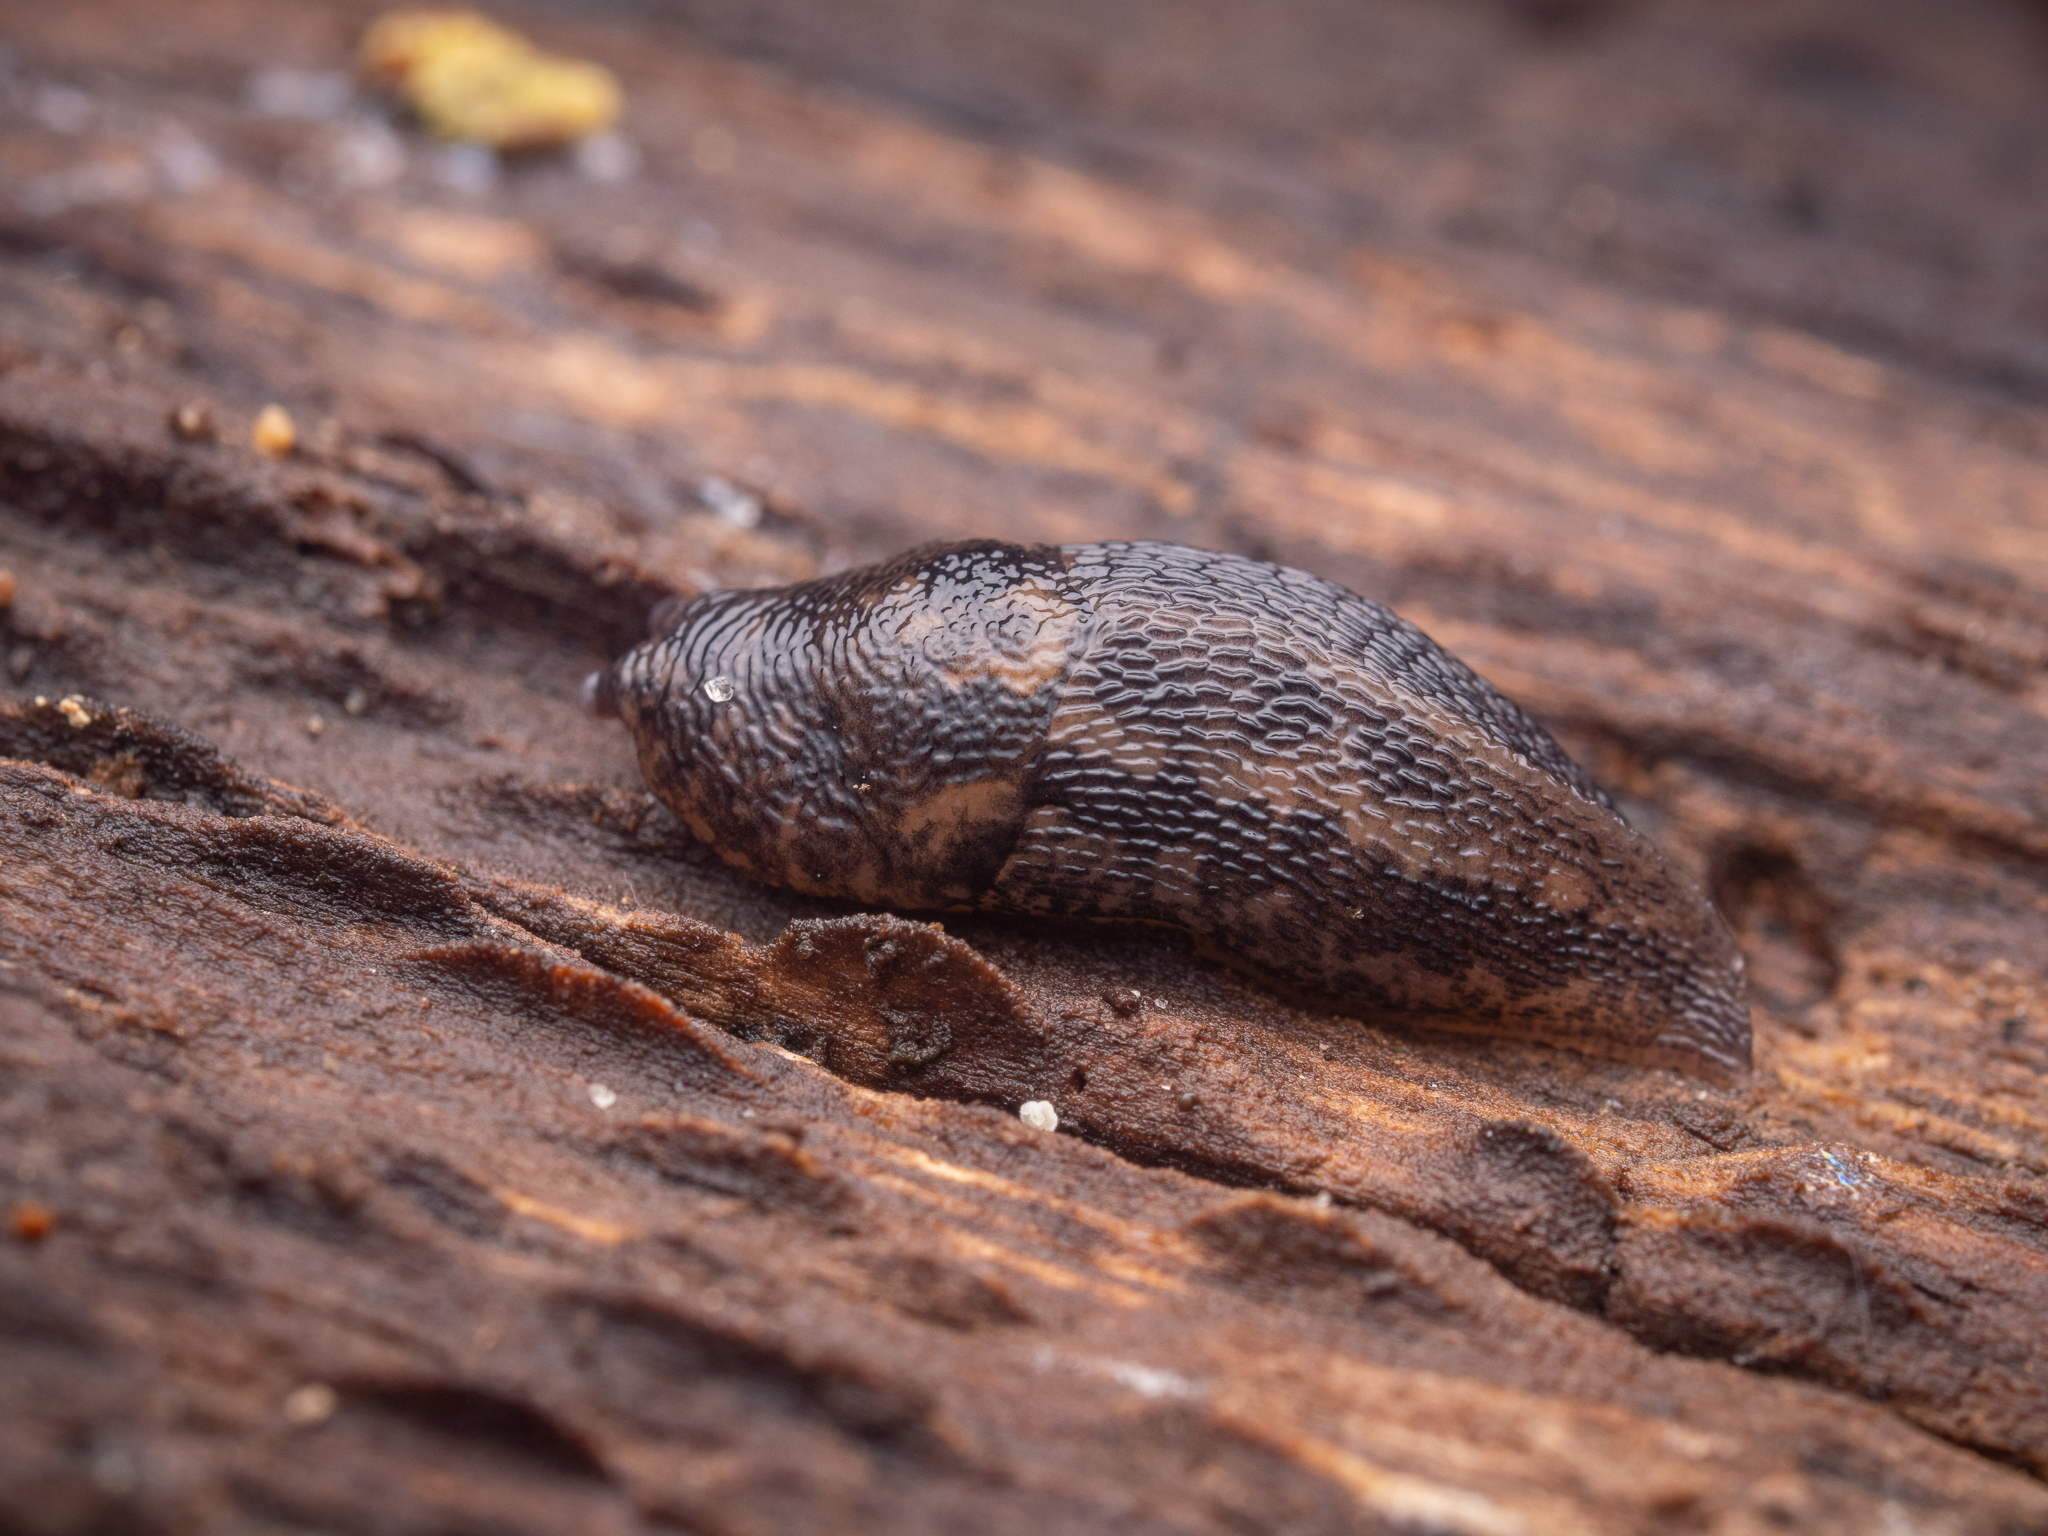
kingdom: Animalia
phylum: Mollusca
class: Gastropoda
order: Stylommatophora
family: Limacidae
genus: Limax
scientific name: Limax maximus
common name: Great grey slug
